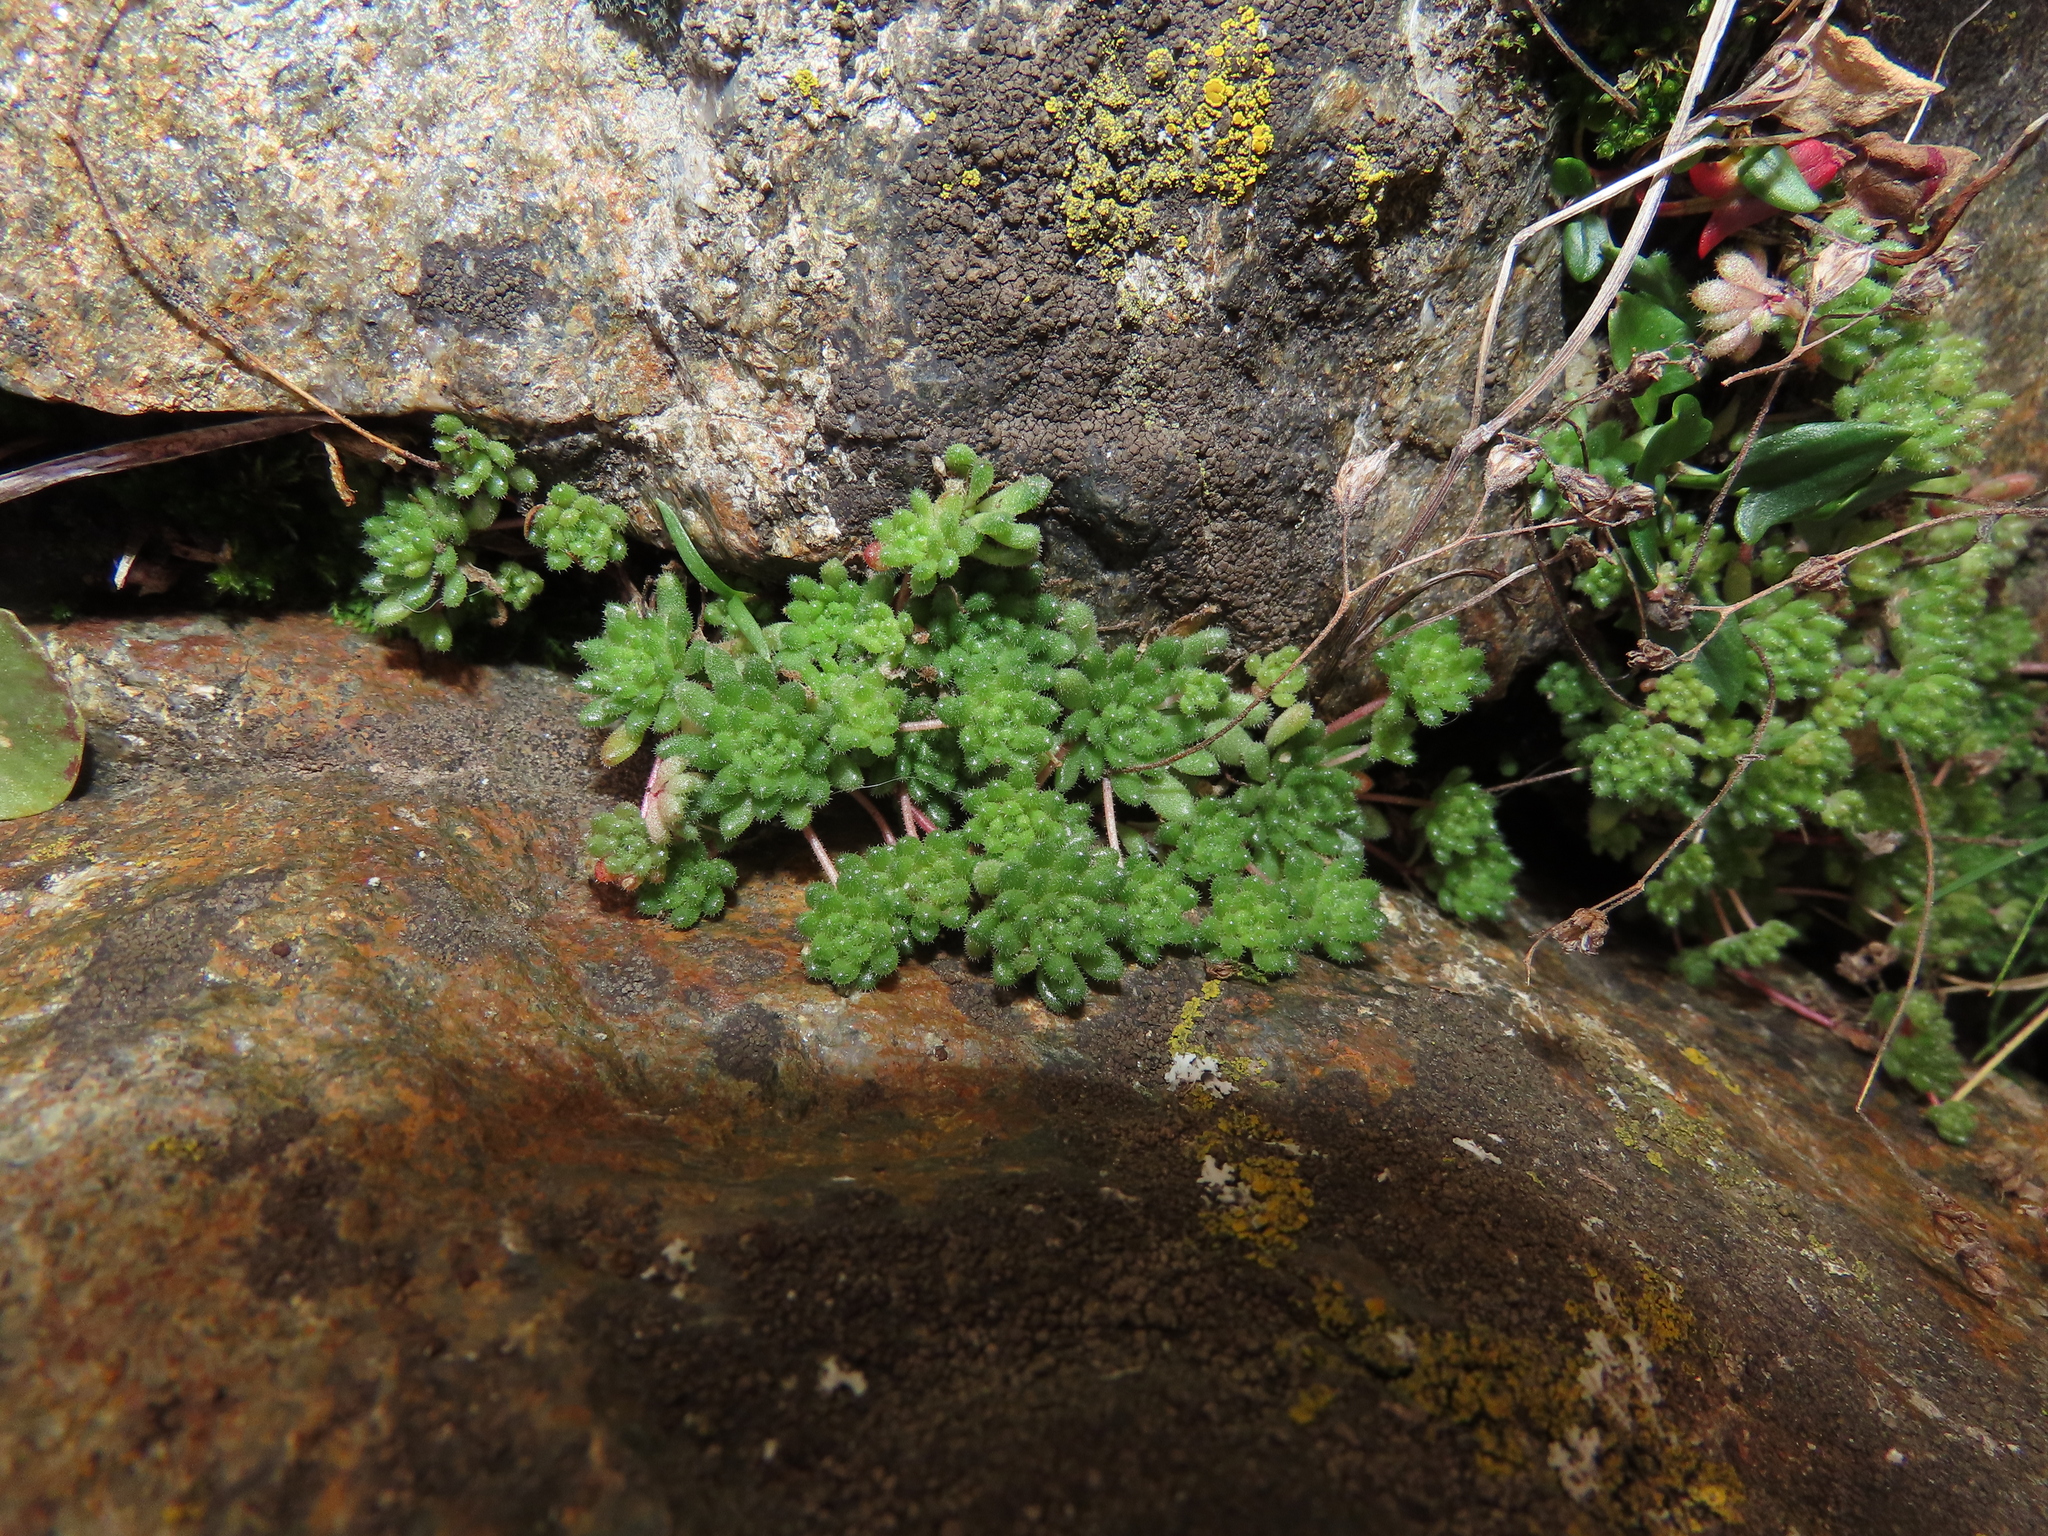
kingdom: Plantae
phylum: Tracheophyta
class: Magnoliopsida
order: Saxifragales
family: Crassulaceae
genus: Sedum
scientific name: Sedum hirsutum
